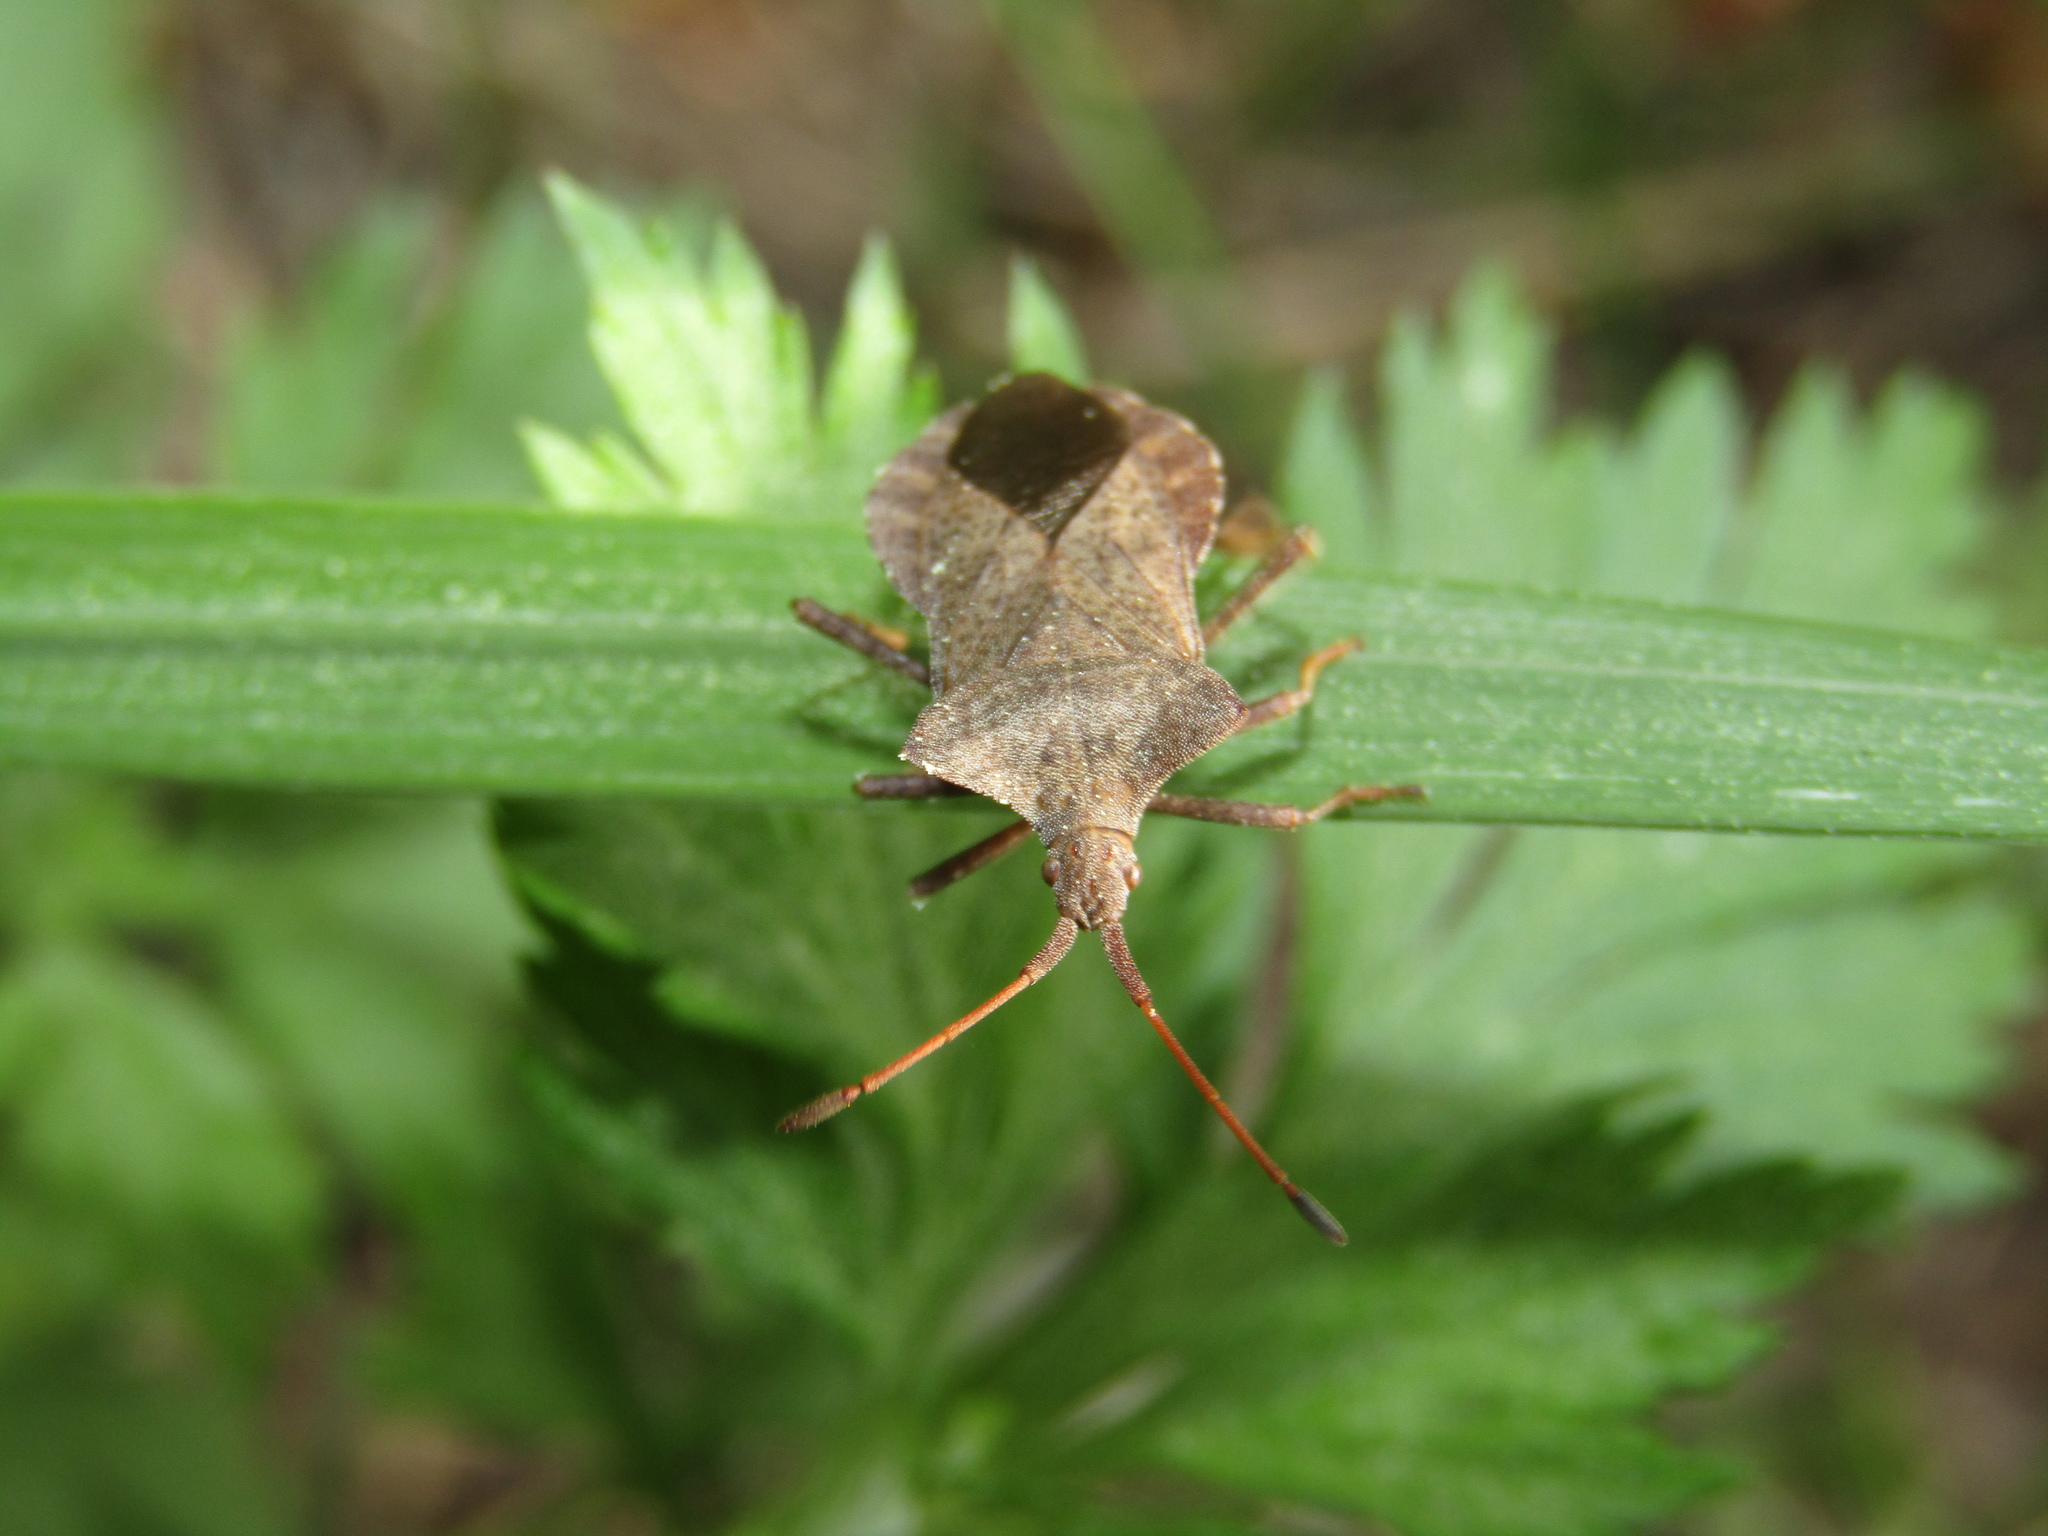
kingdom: Animalia
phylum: Arthropoda
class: Insecta
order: Hemiptera
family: Coreidae
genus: Coreus
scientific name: Coreus marginatus
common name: Dock bug
